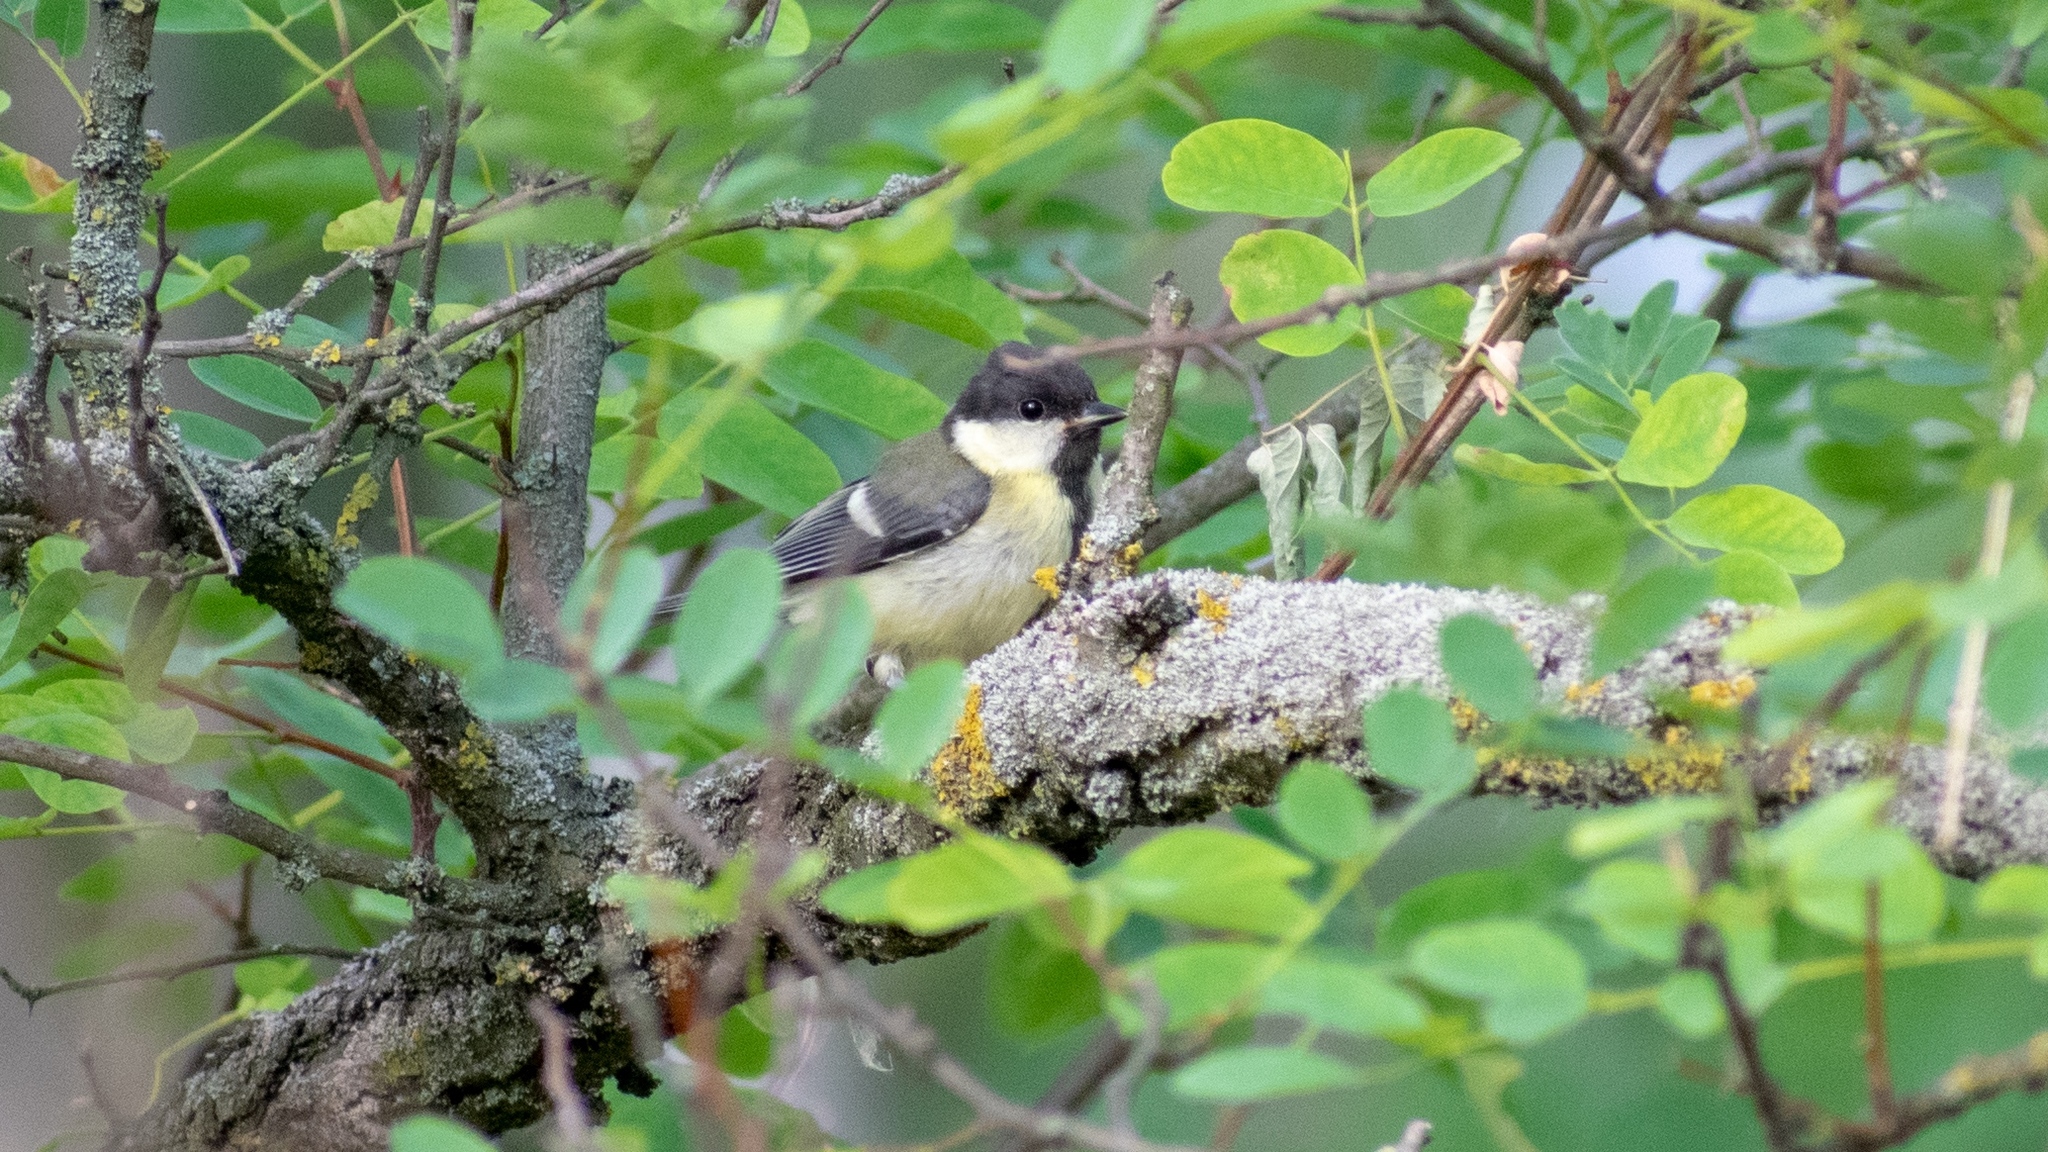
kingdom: Animalia
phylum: Chordata
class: Aves
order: Passeriformes
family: Paridae
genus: Parus
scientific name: Parus major
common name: Great tit
